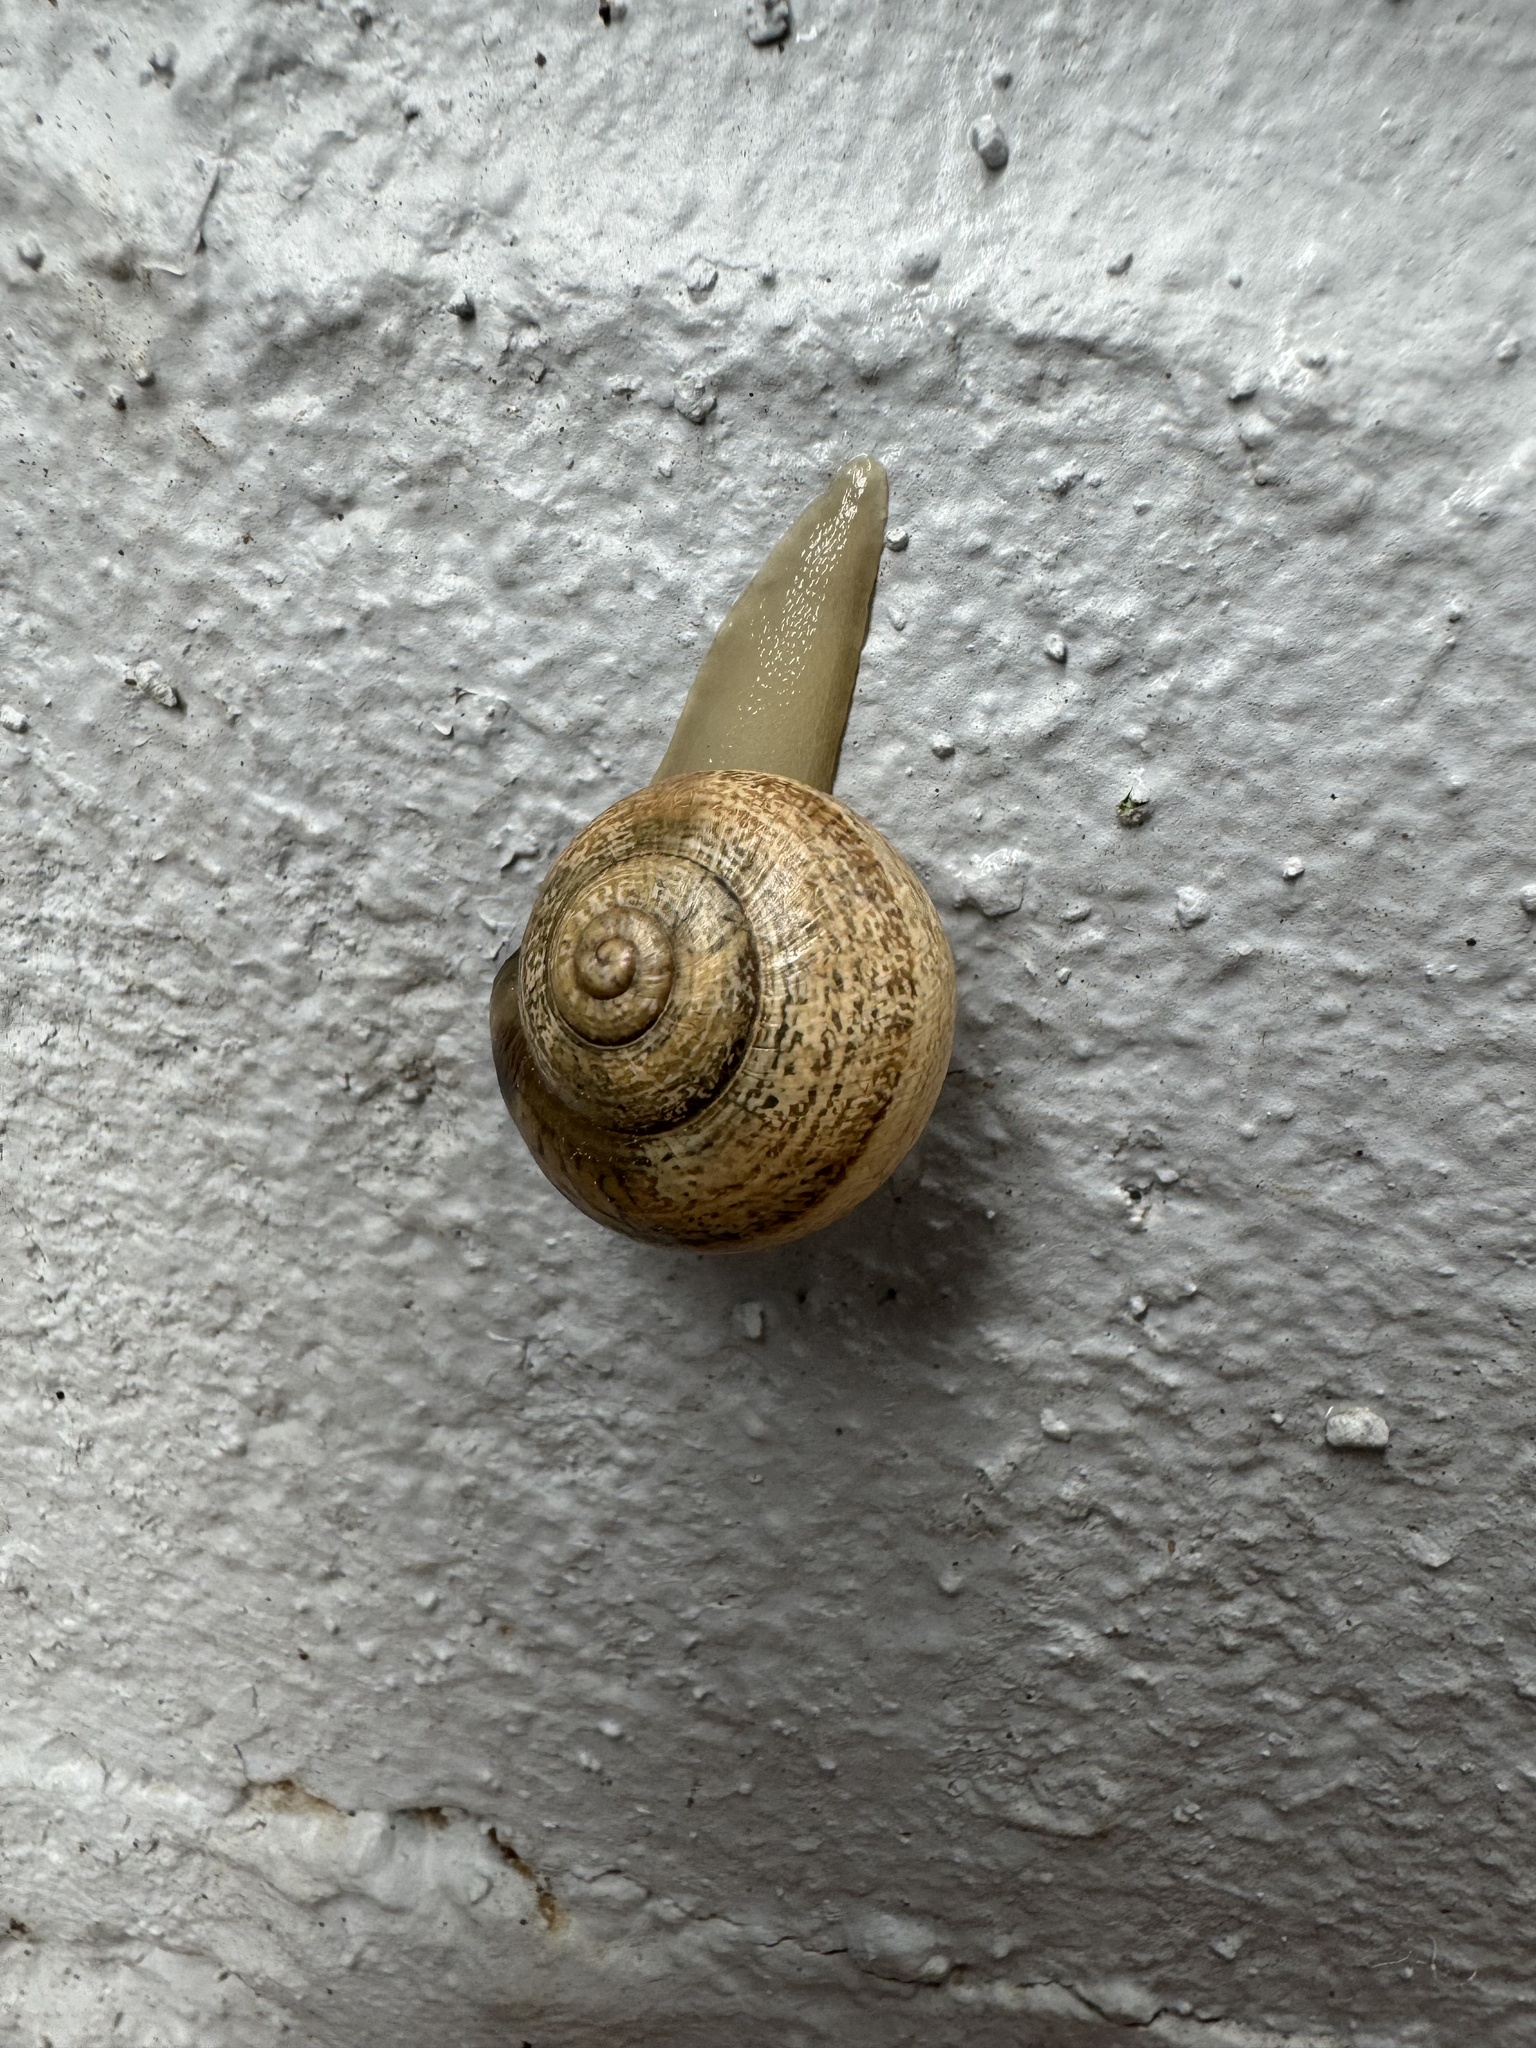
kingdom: Animalia
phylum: Mollusca
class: Gastropoda
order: Stylommatophora
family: Helicidae
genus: Otala
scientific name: Otala lactea
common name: Milk snail
